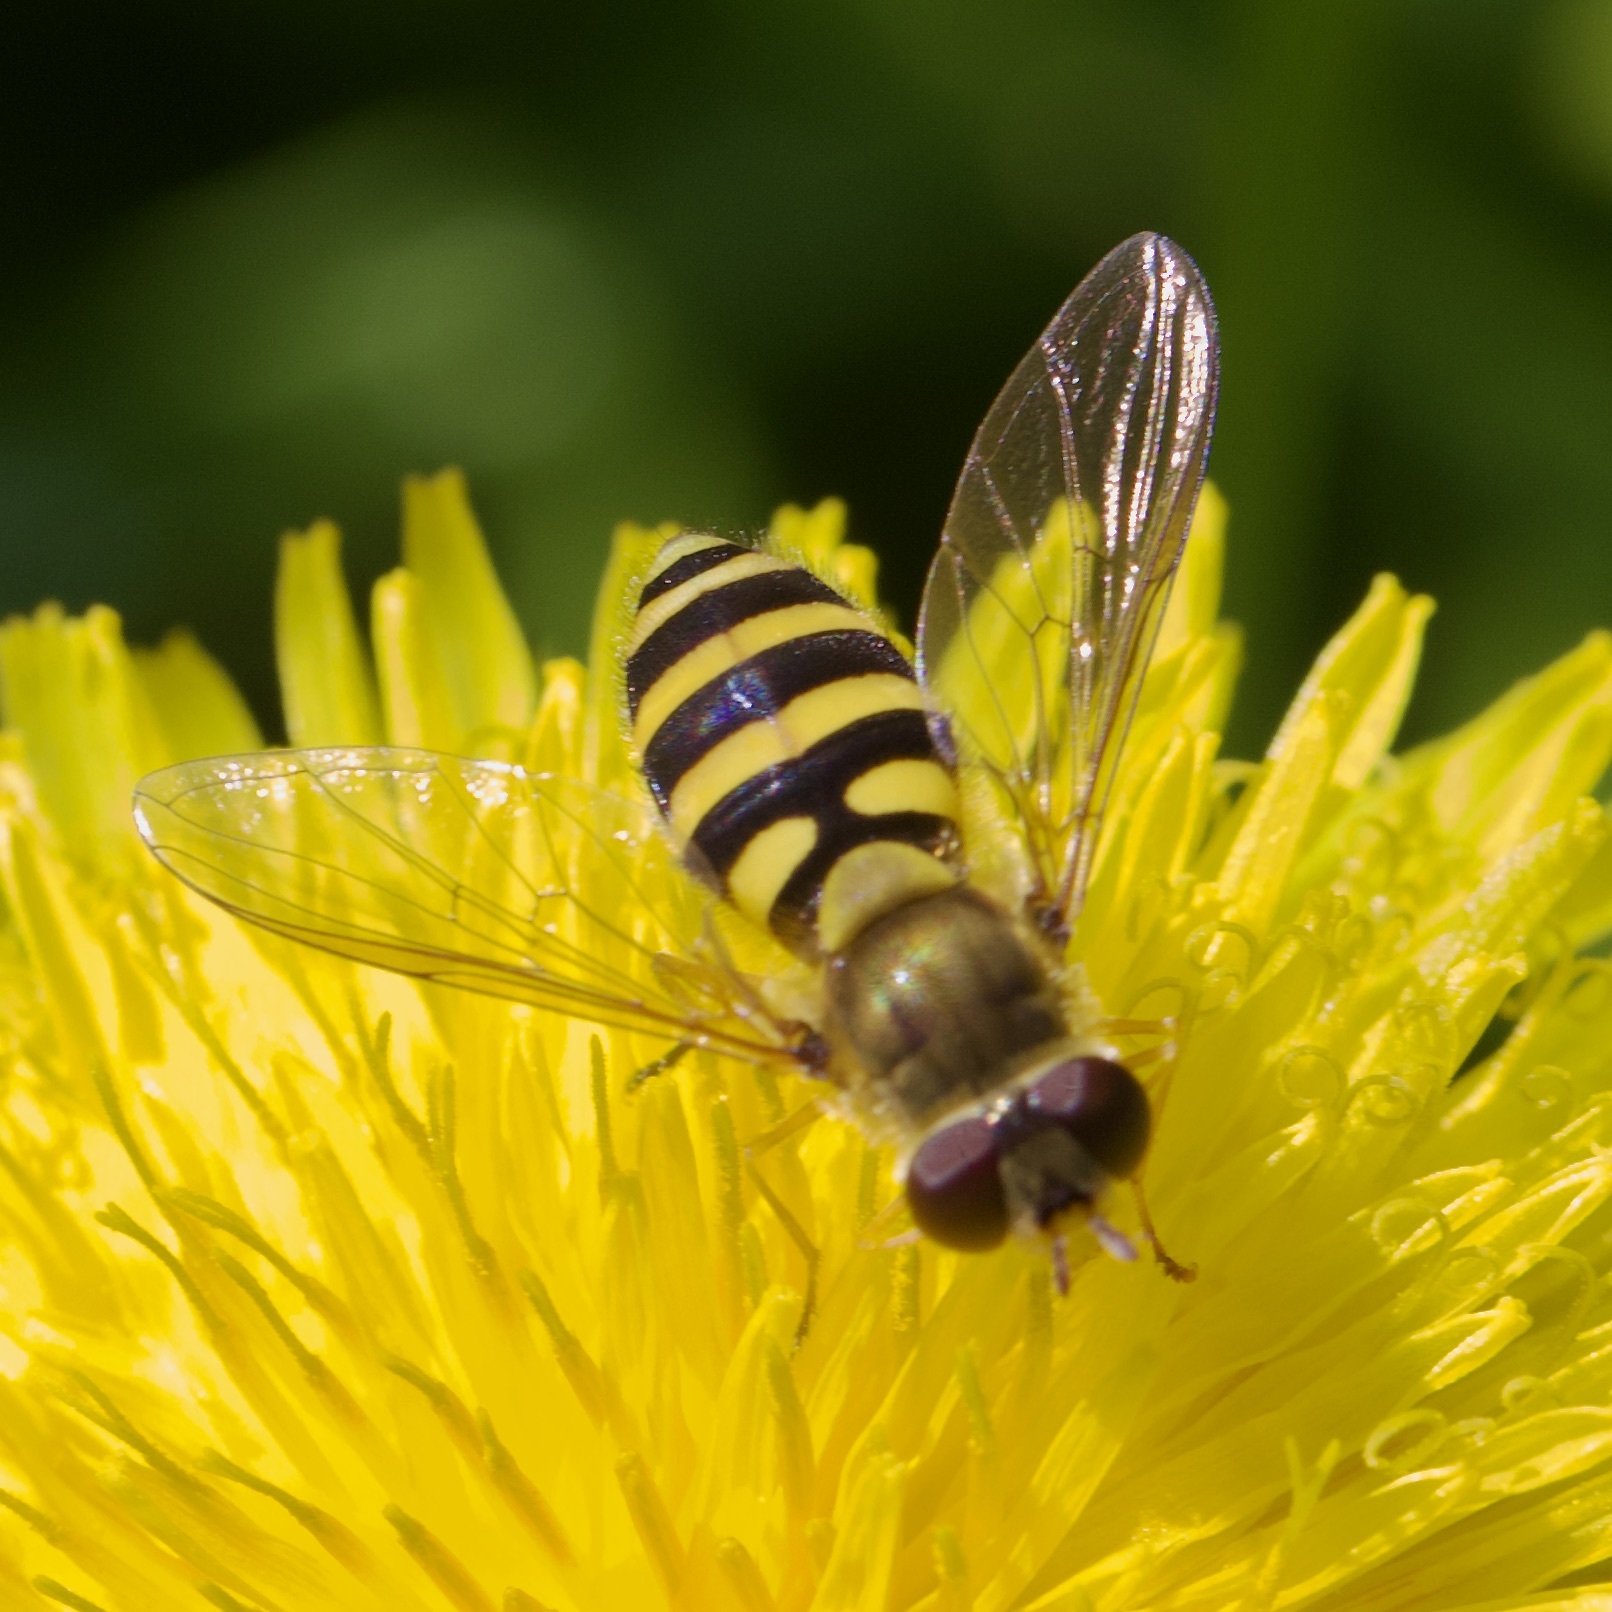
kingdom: Animalia
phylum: Arthropoda
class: Insecta
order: Diptera
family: Syrphidae
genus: Syrphus
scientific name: Syrphus ribesii
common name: Common flower fly
